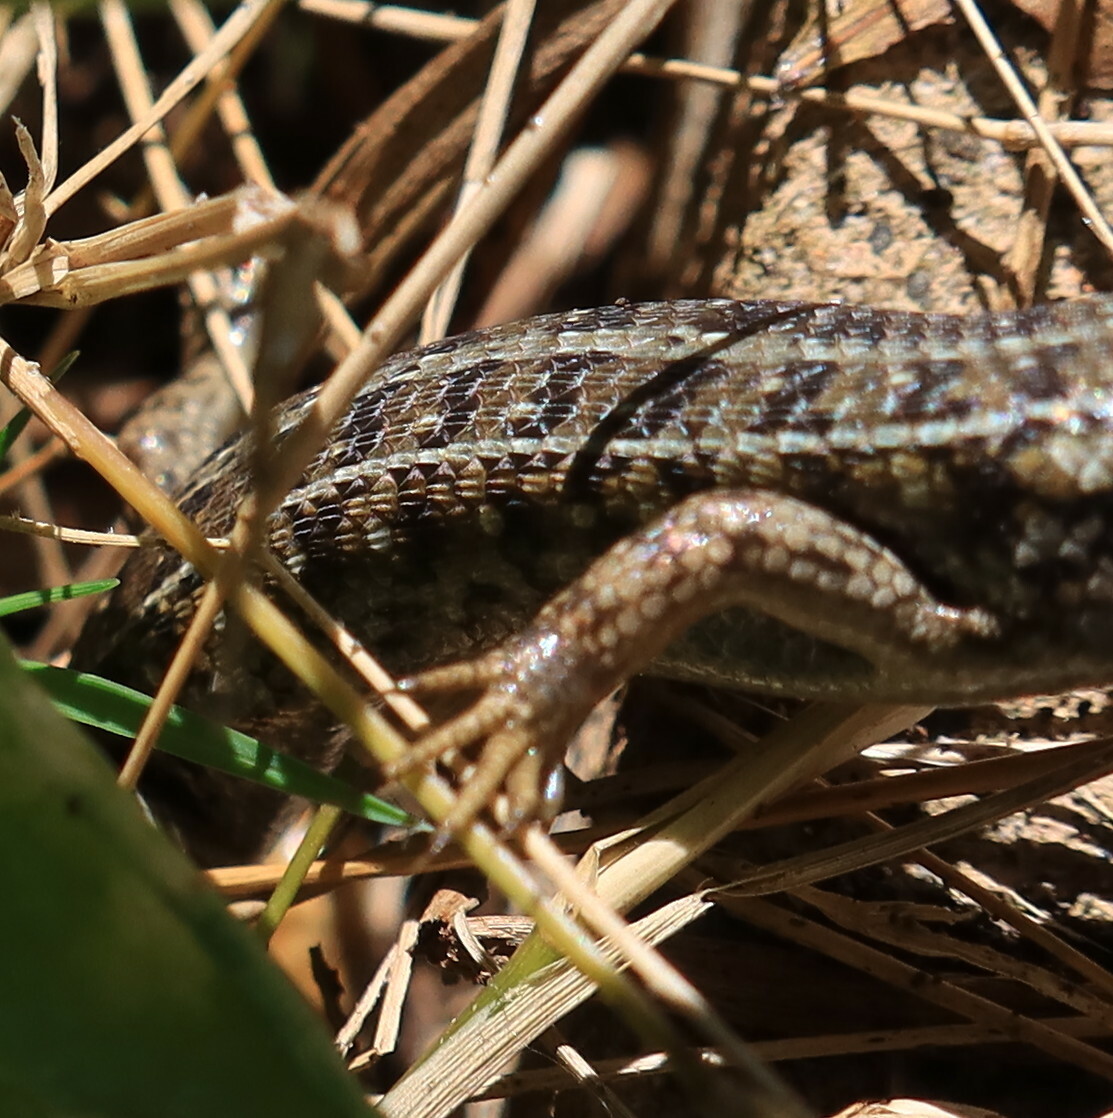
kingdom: Animalia
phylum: Chordata
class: Squamata
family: Scincidae
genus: Trachylepis
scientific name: Trachylepis capensis
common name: Cape skink
